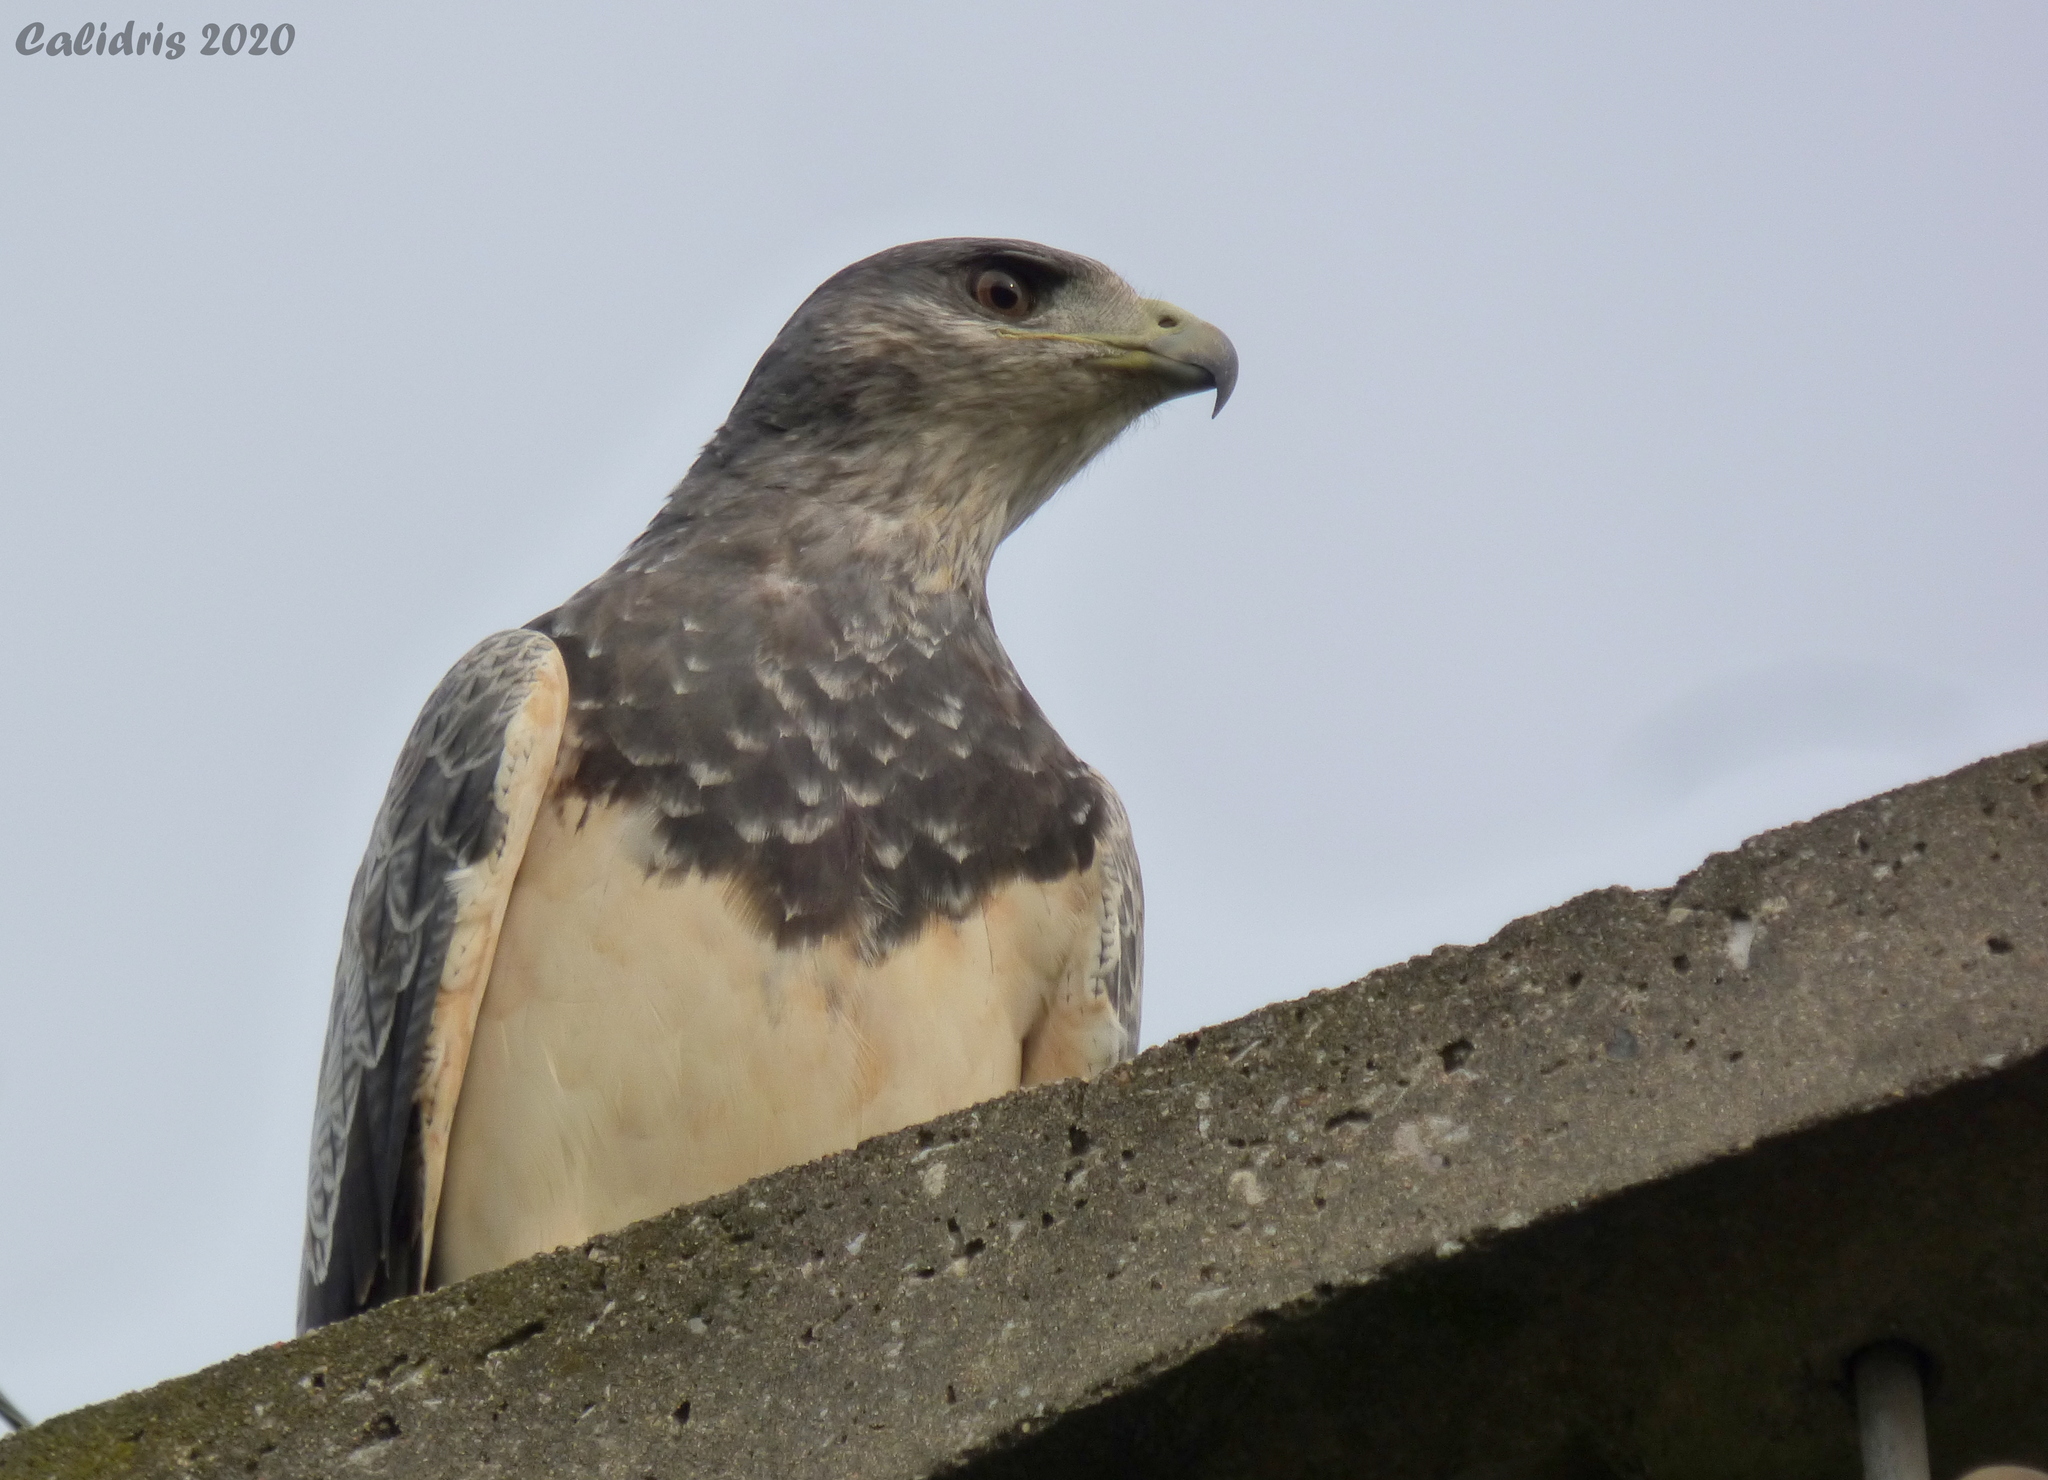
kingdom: Animalia
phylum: Chordata
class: Aves
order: Accipitriformes
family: Accipitridae
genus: Geranoaetus
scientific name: Geranoaetus melanoleucus
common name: Black-chested buzzard-eagle
